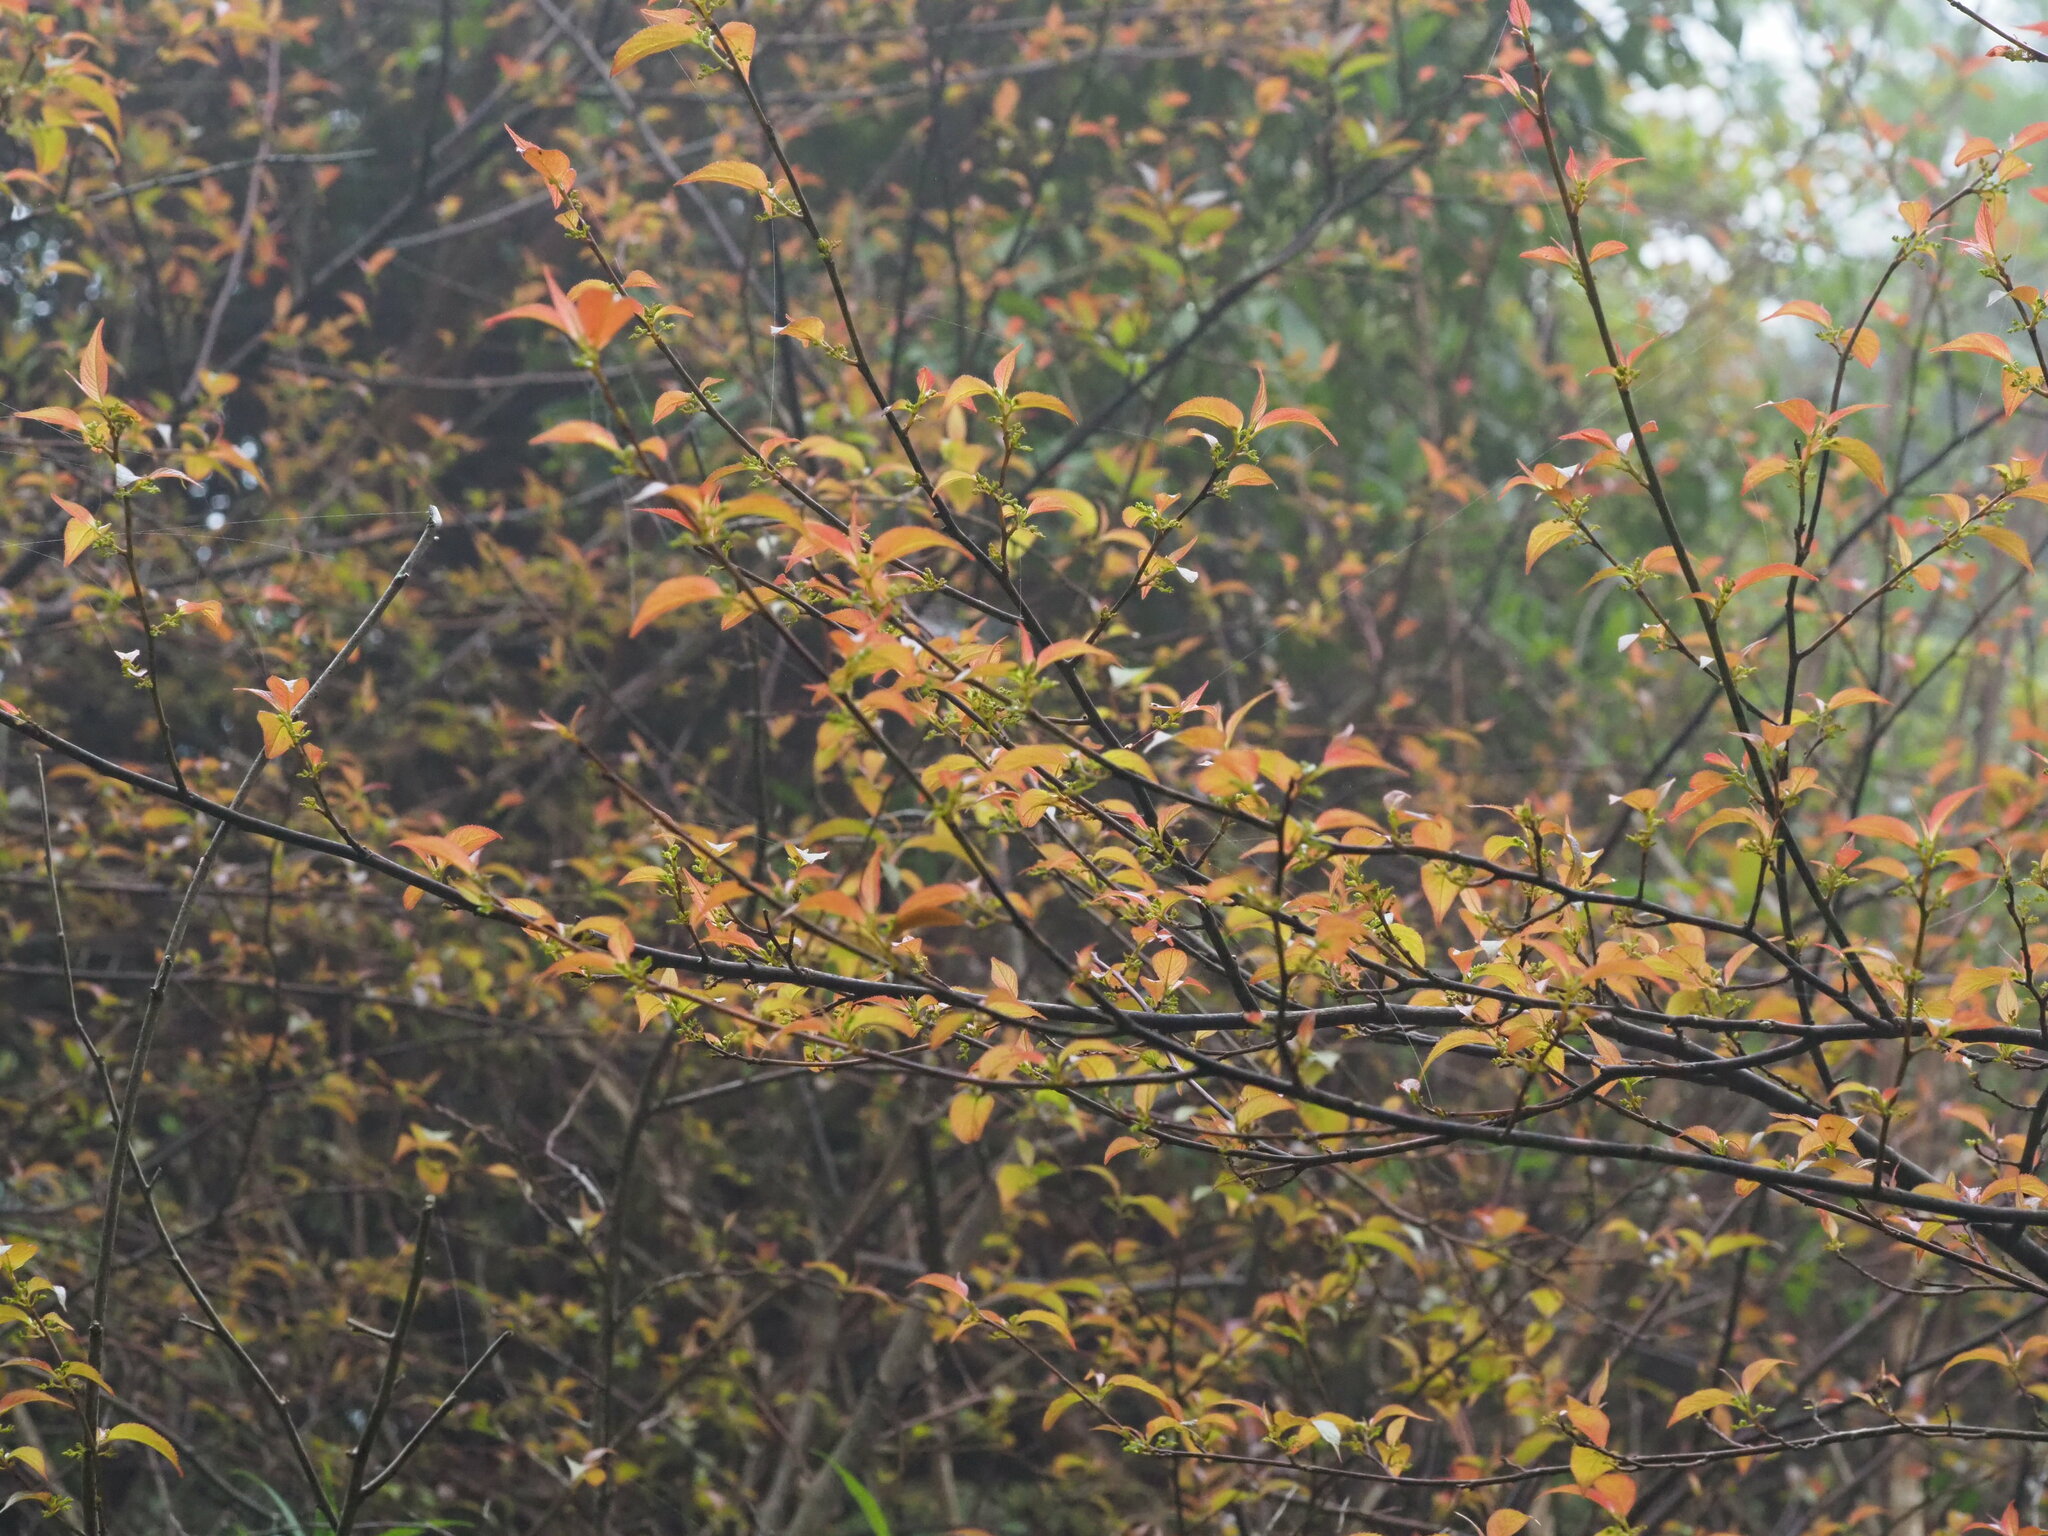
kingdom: Plantae
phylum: Tracheophyta
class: Magnoliopsida
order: Huerteales
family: Dipentodontaceae
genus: Perrottetia
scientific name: Perrottetia arisanensis
